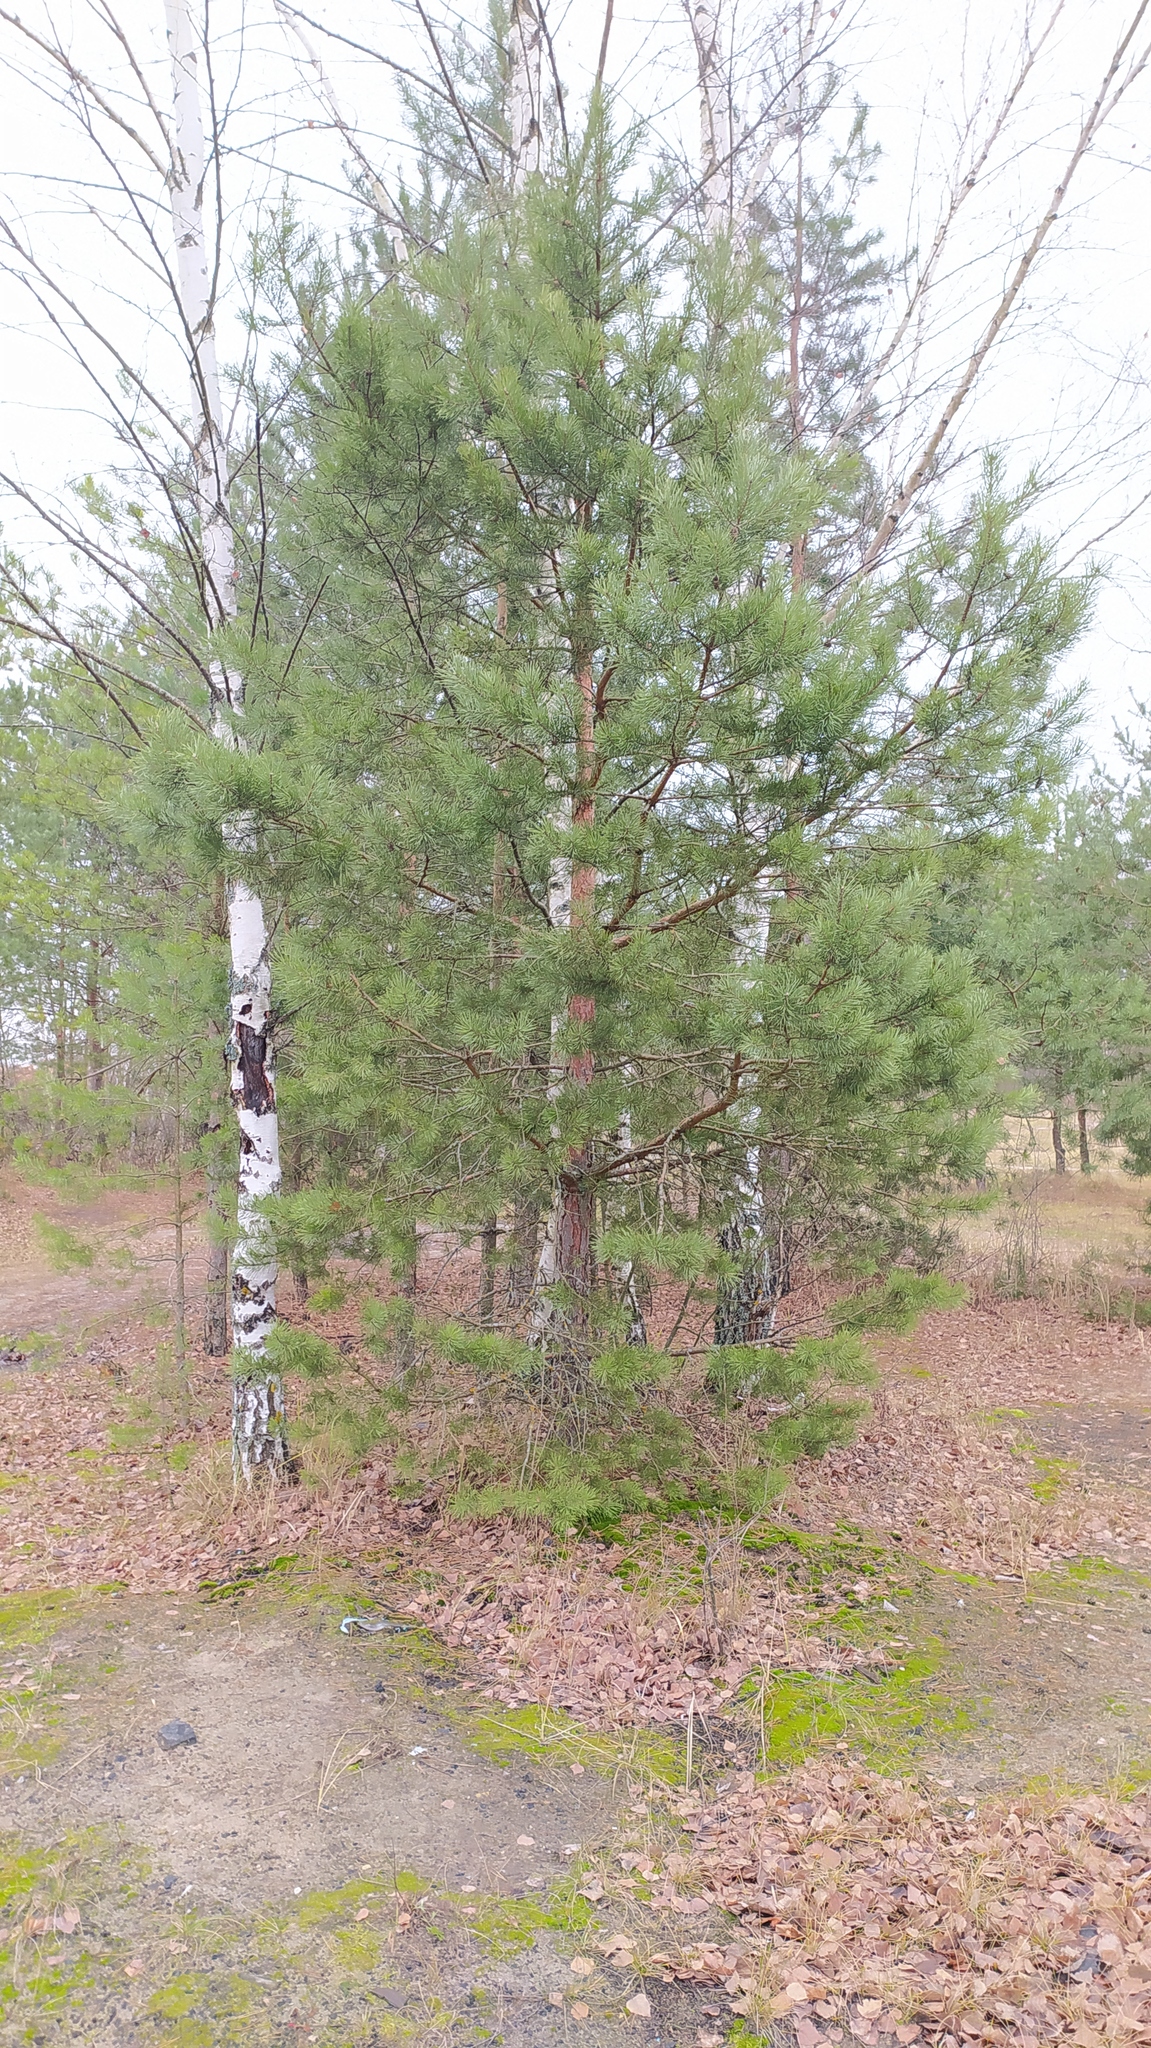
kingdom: Plantae
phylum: Tracheophyta
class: Pinopsida
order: Pinales
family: Pinaceae
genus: Pinus
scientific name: Pinus sylvestris
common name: Scots pine
